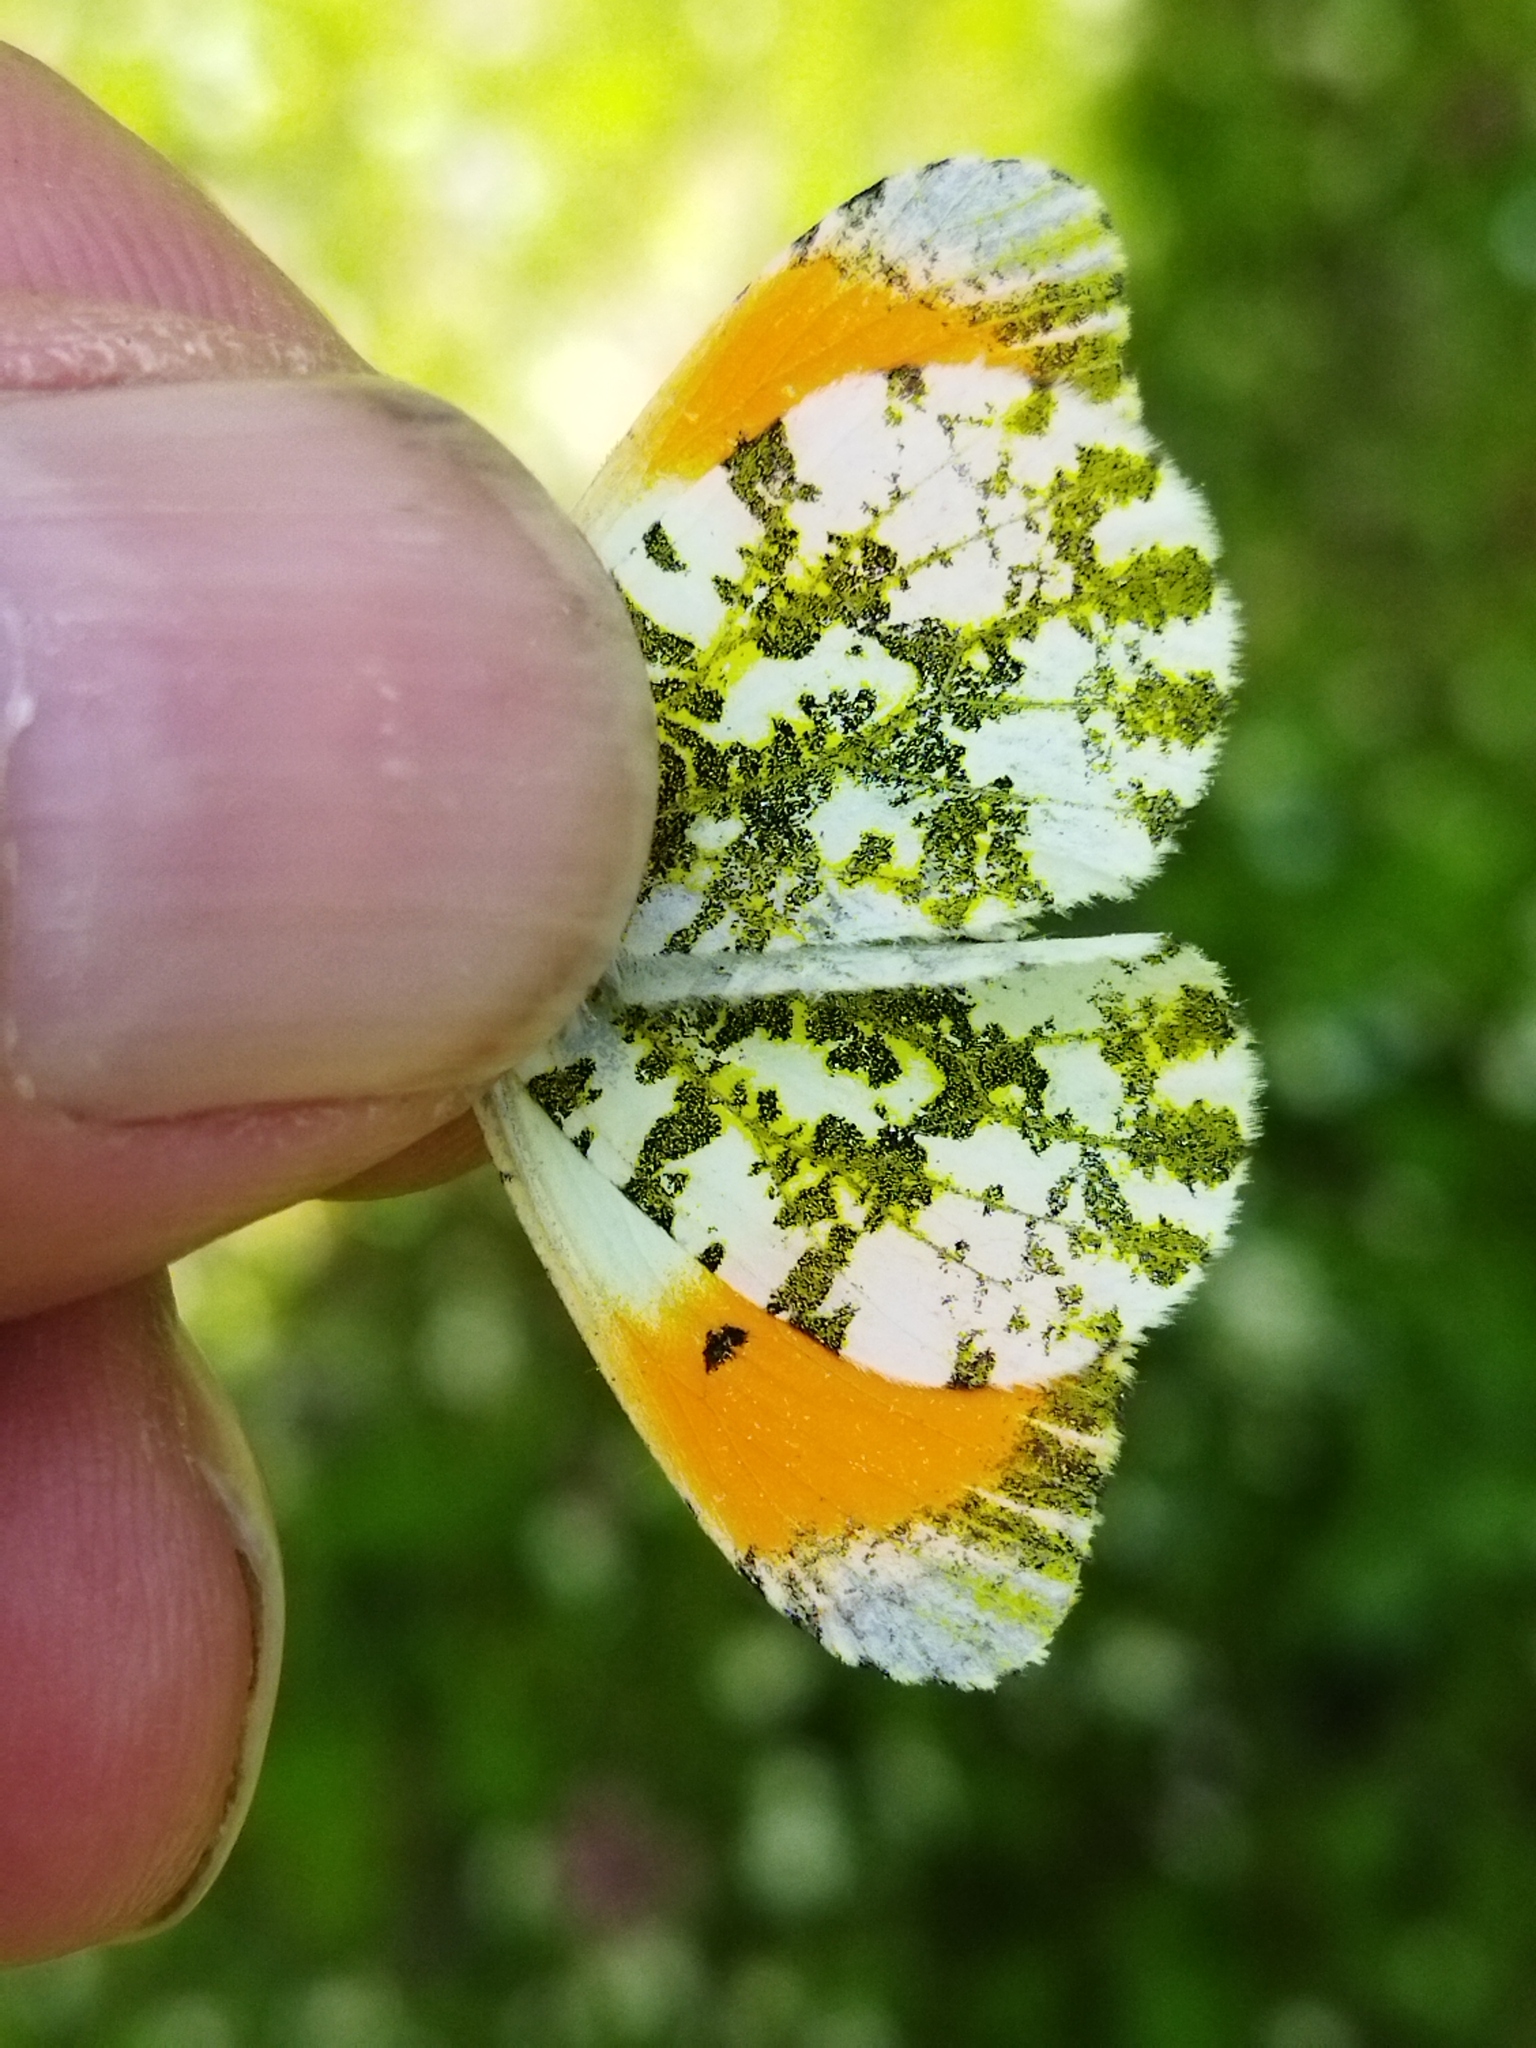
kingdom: Animalia
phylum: Arthropoda
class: Insecta
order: Lepidoptera
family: Pieridae
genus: Anthocharis
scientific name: Anthocharis cardamines
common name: Orange-tip
